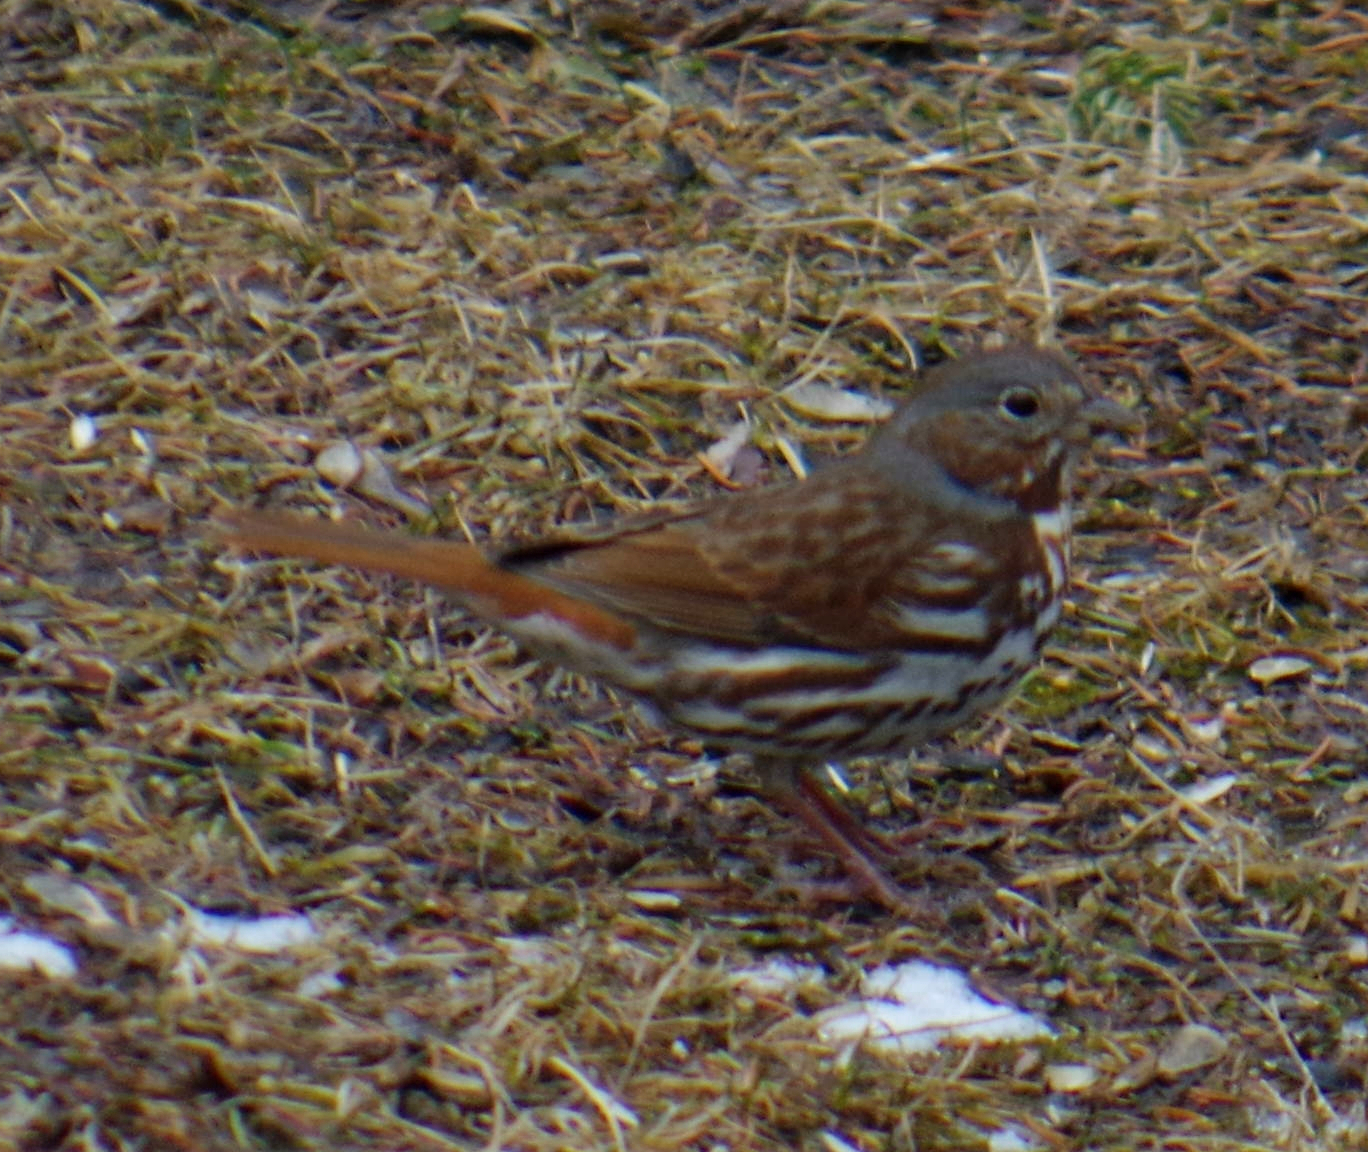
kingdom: Animalia
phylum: Chordata
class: Aves
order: Passeriformes
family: Passerellidae
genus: Passerella
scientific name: Passerella iliaca
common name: Fox sparrow
